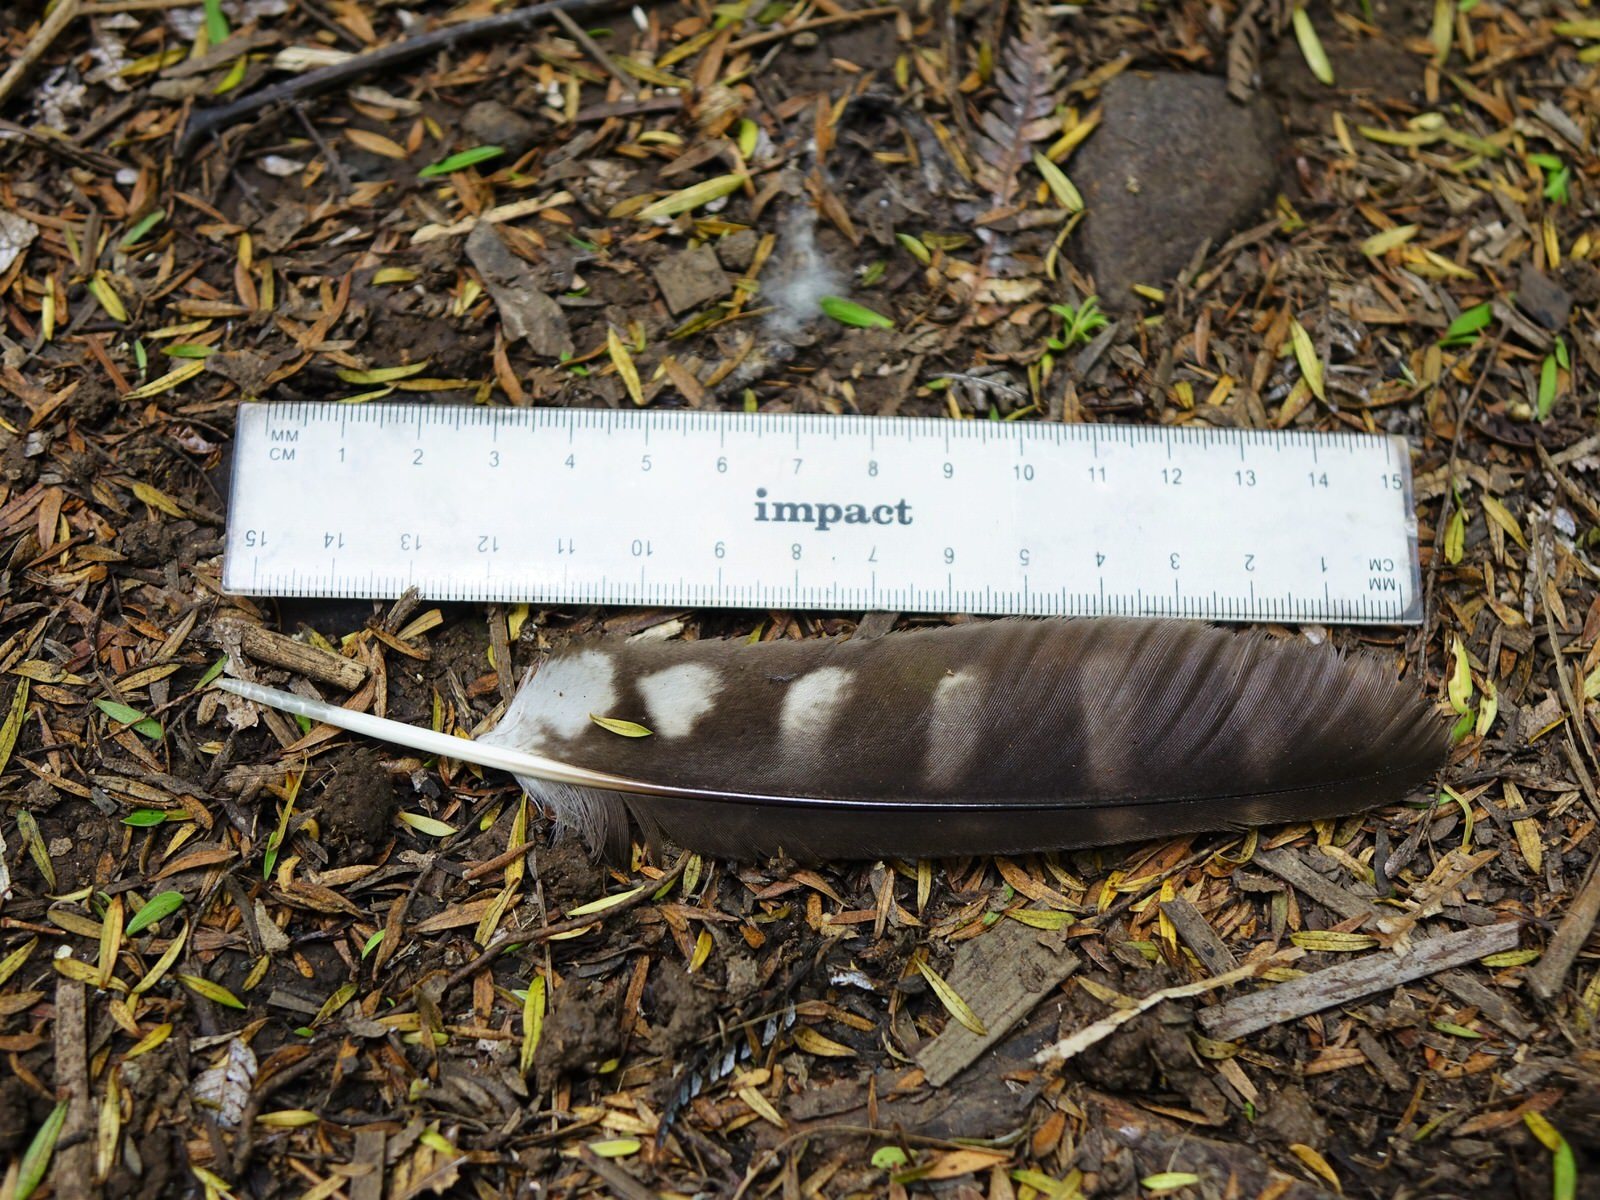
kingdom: Animalia
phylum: Chordata
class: Aves
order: Strigiformes
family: Strigidae
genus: Ninox
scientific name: Ninox novaeseelandiae
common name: Morepork
